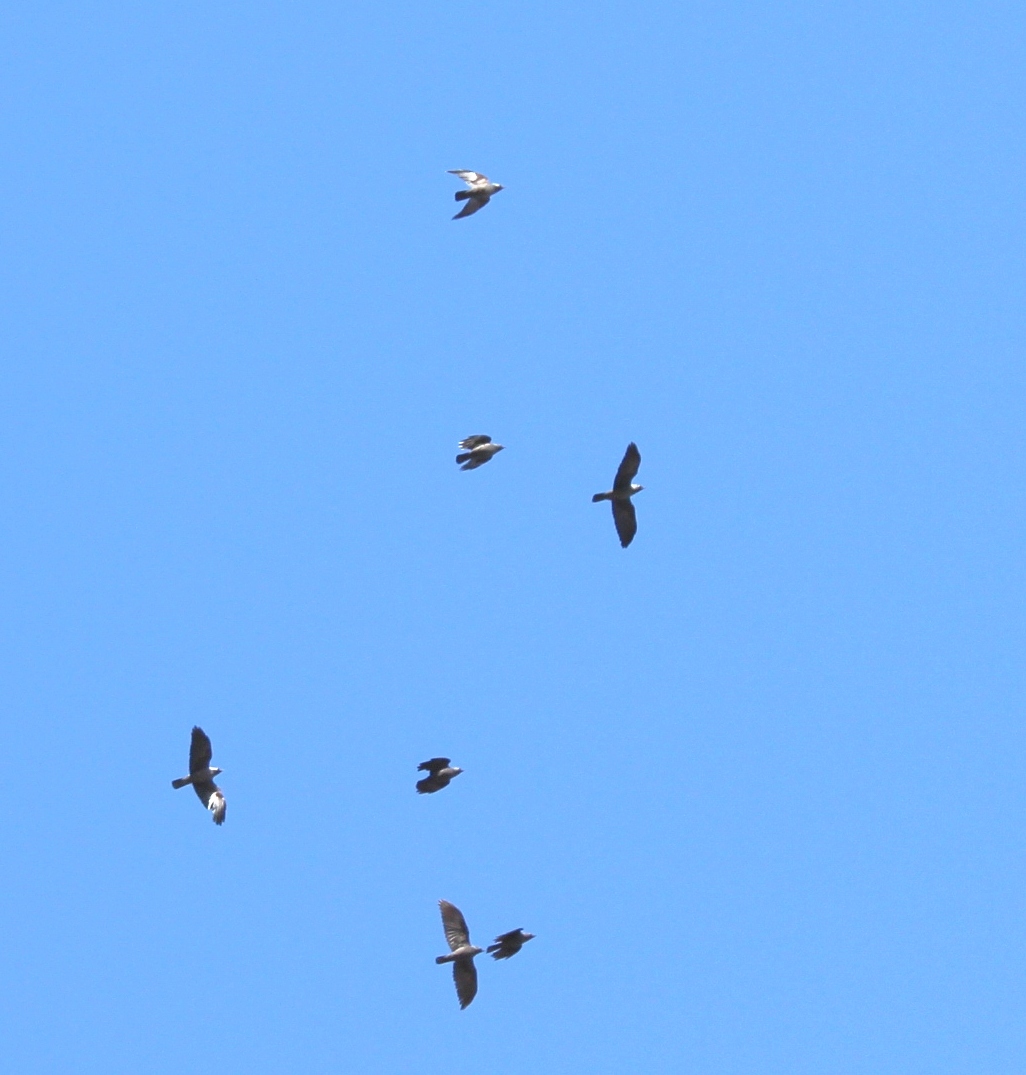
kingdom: Animalia
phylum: Chordata
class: Aves
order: Passeriformes
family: Corvidae
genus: Coloeus
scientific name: Coloeus monedula
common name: Western jackdaw
